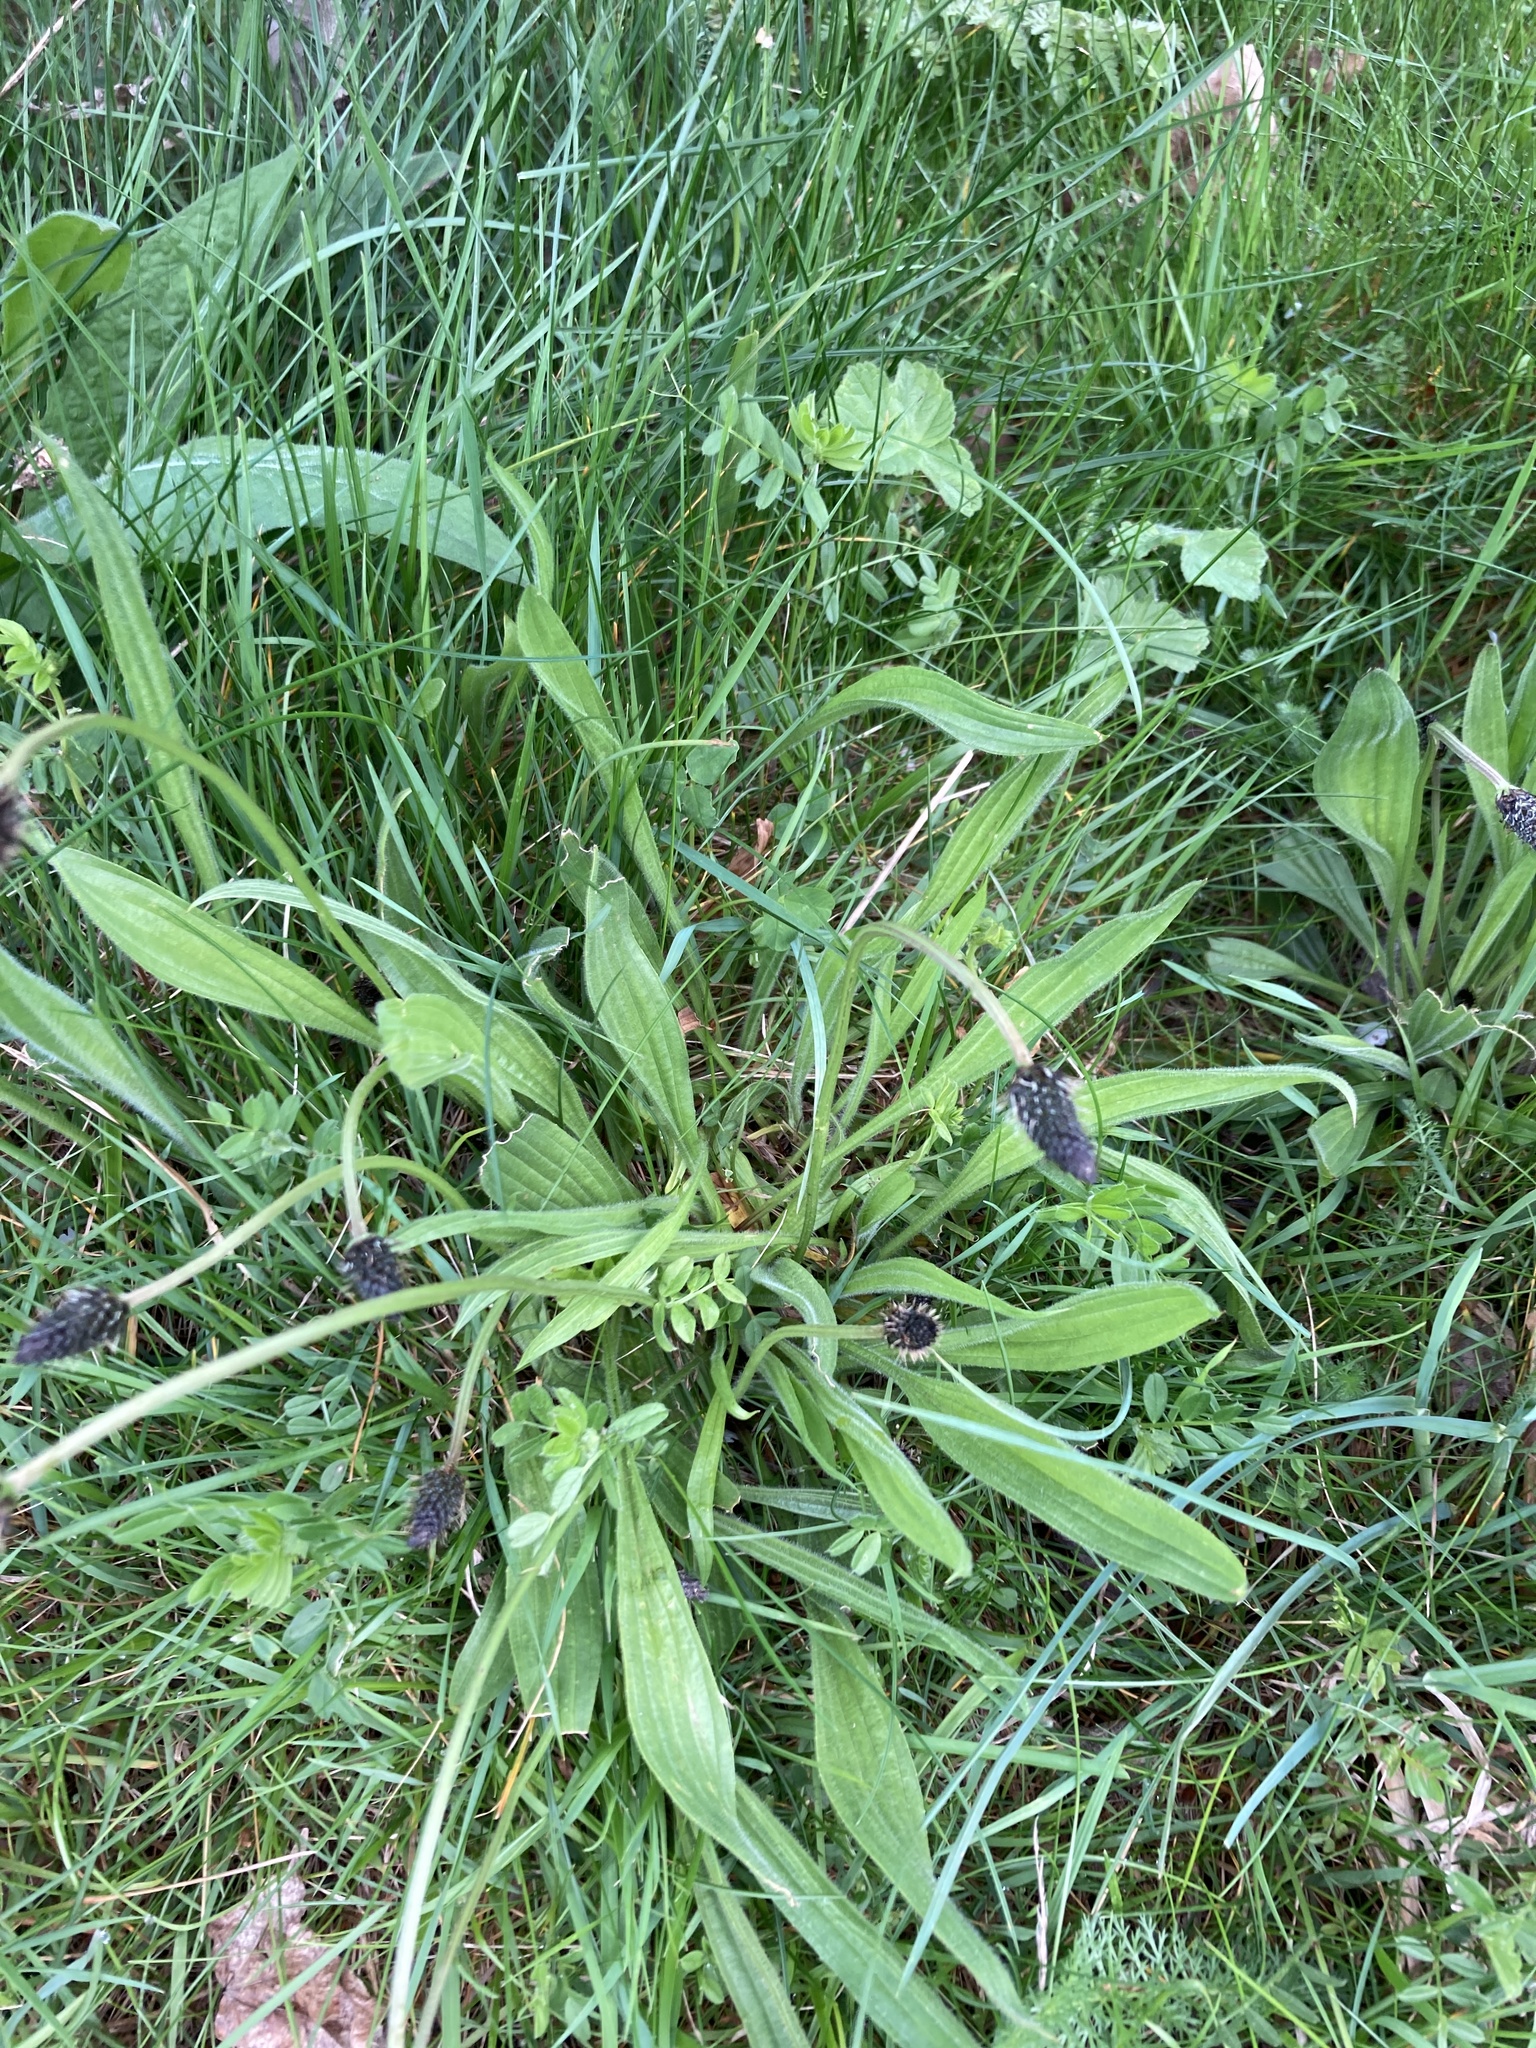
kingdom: Plantae
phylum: Tracheophyta
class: Magnoliopsida
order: Lamiales
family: Plantaginaceae
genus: Plantago
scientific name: Plantago lanceolata
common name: Ribwort plantain
